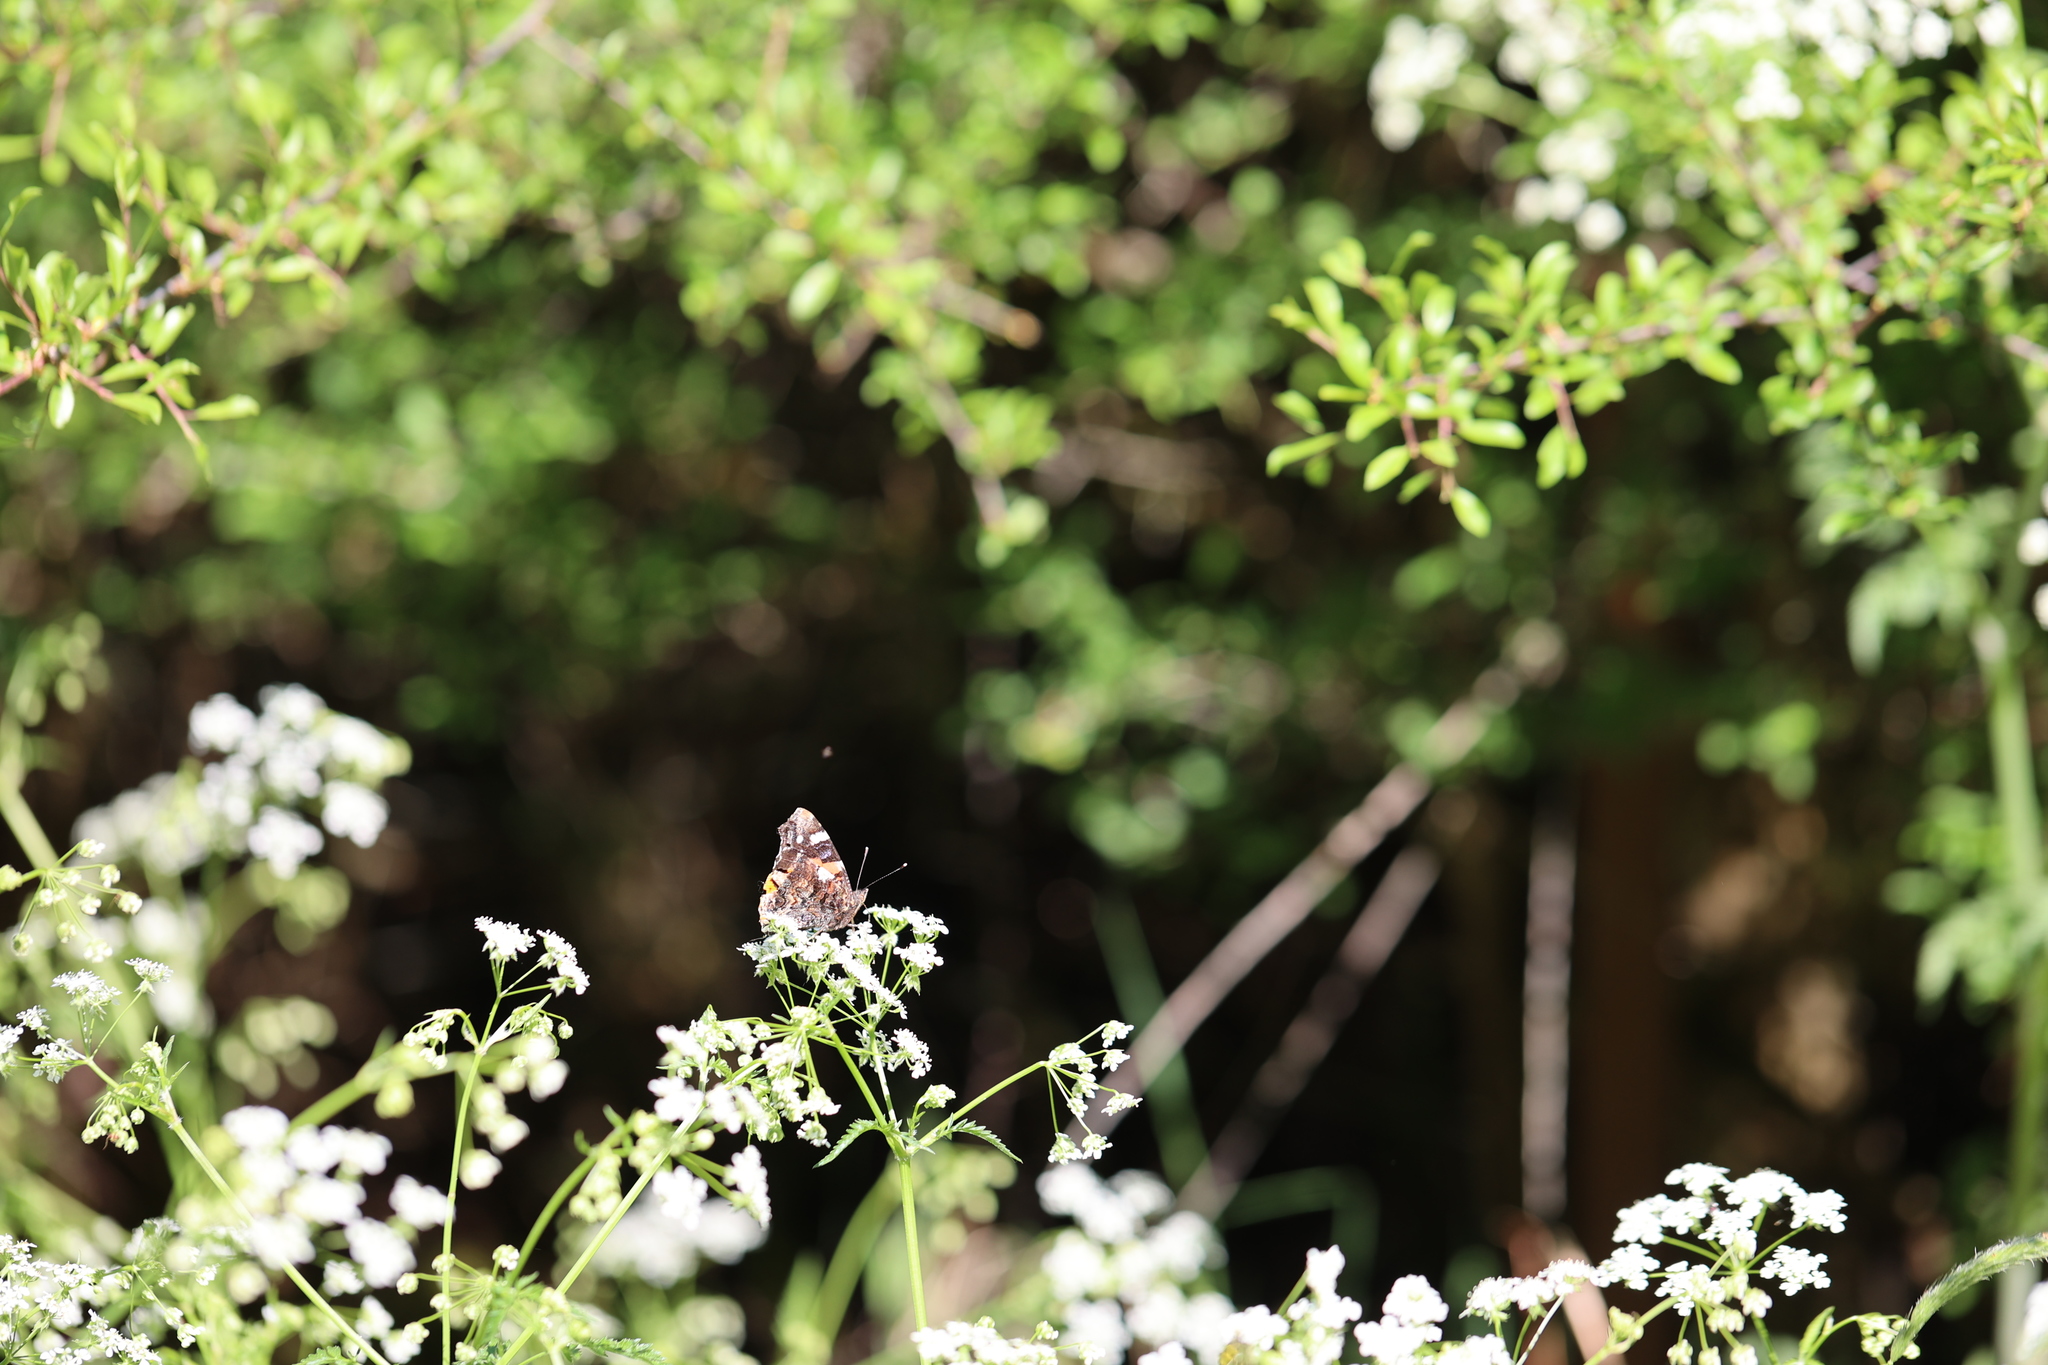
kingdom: Animalia
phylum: Arthropoda
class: Insecta
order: Lepidoptera
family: Nymphalidae
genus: Vanessa
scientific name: Vanessa atalanta
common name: Red admiral
